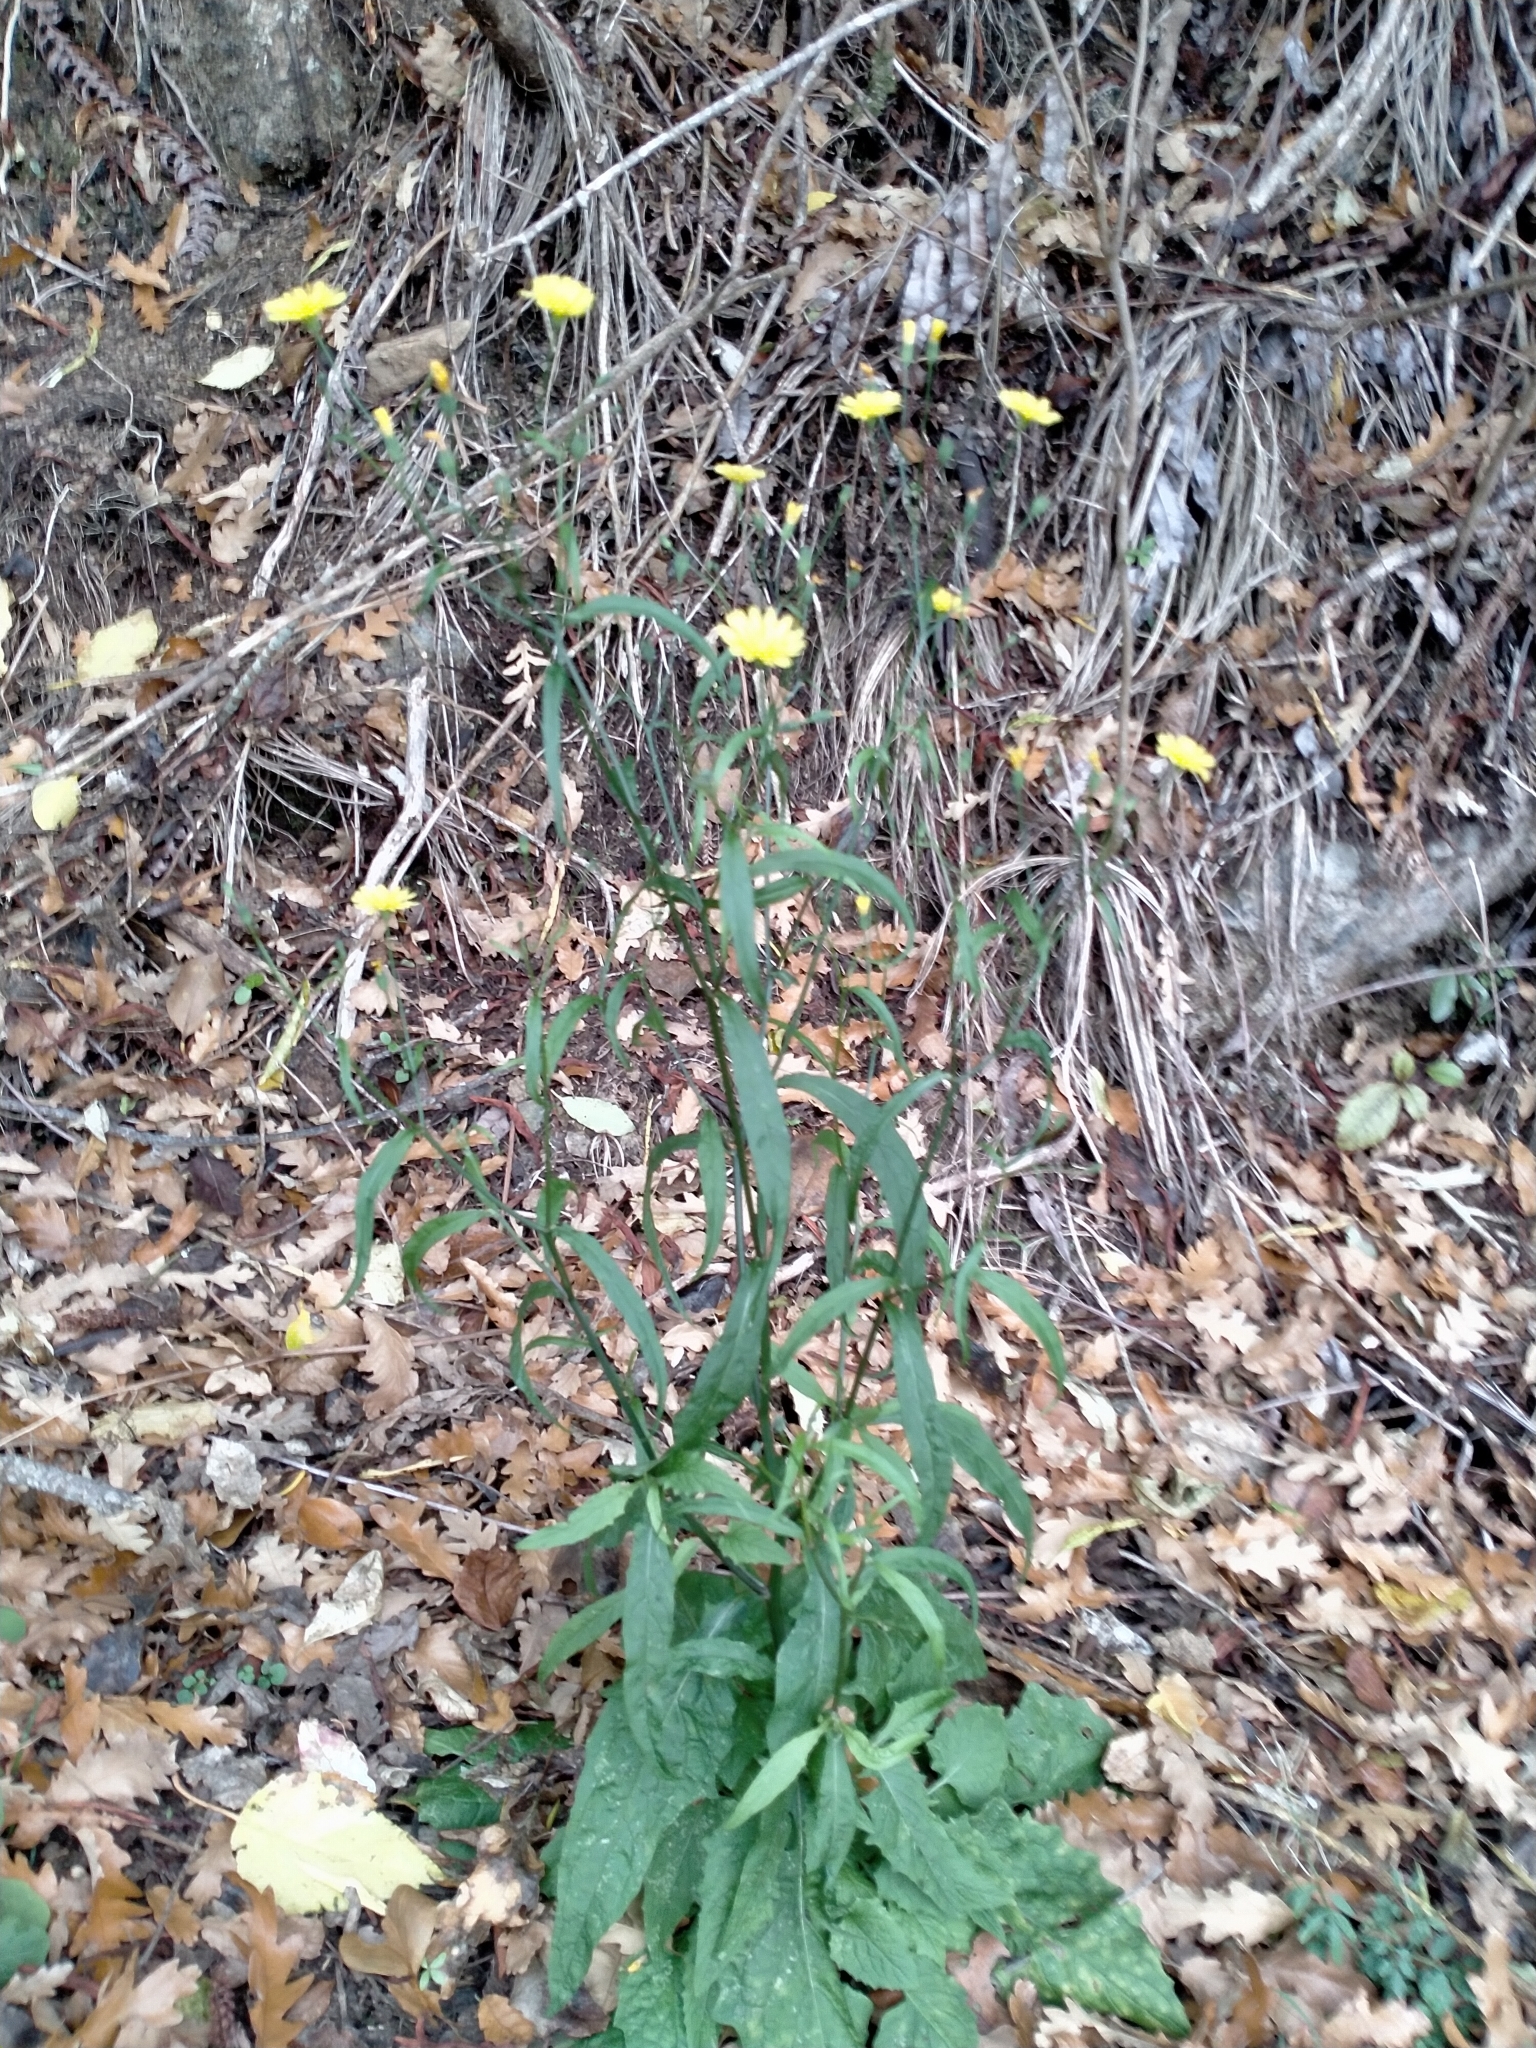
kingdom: Plantae
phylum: Tracheophyta
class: Magnoliopsida
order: Asterales
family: Asteraceae
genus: Lapsana
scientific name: Lapsana communis
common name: Nipplewort
